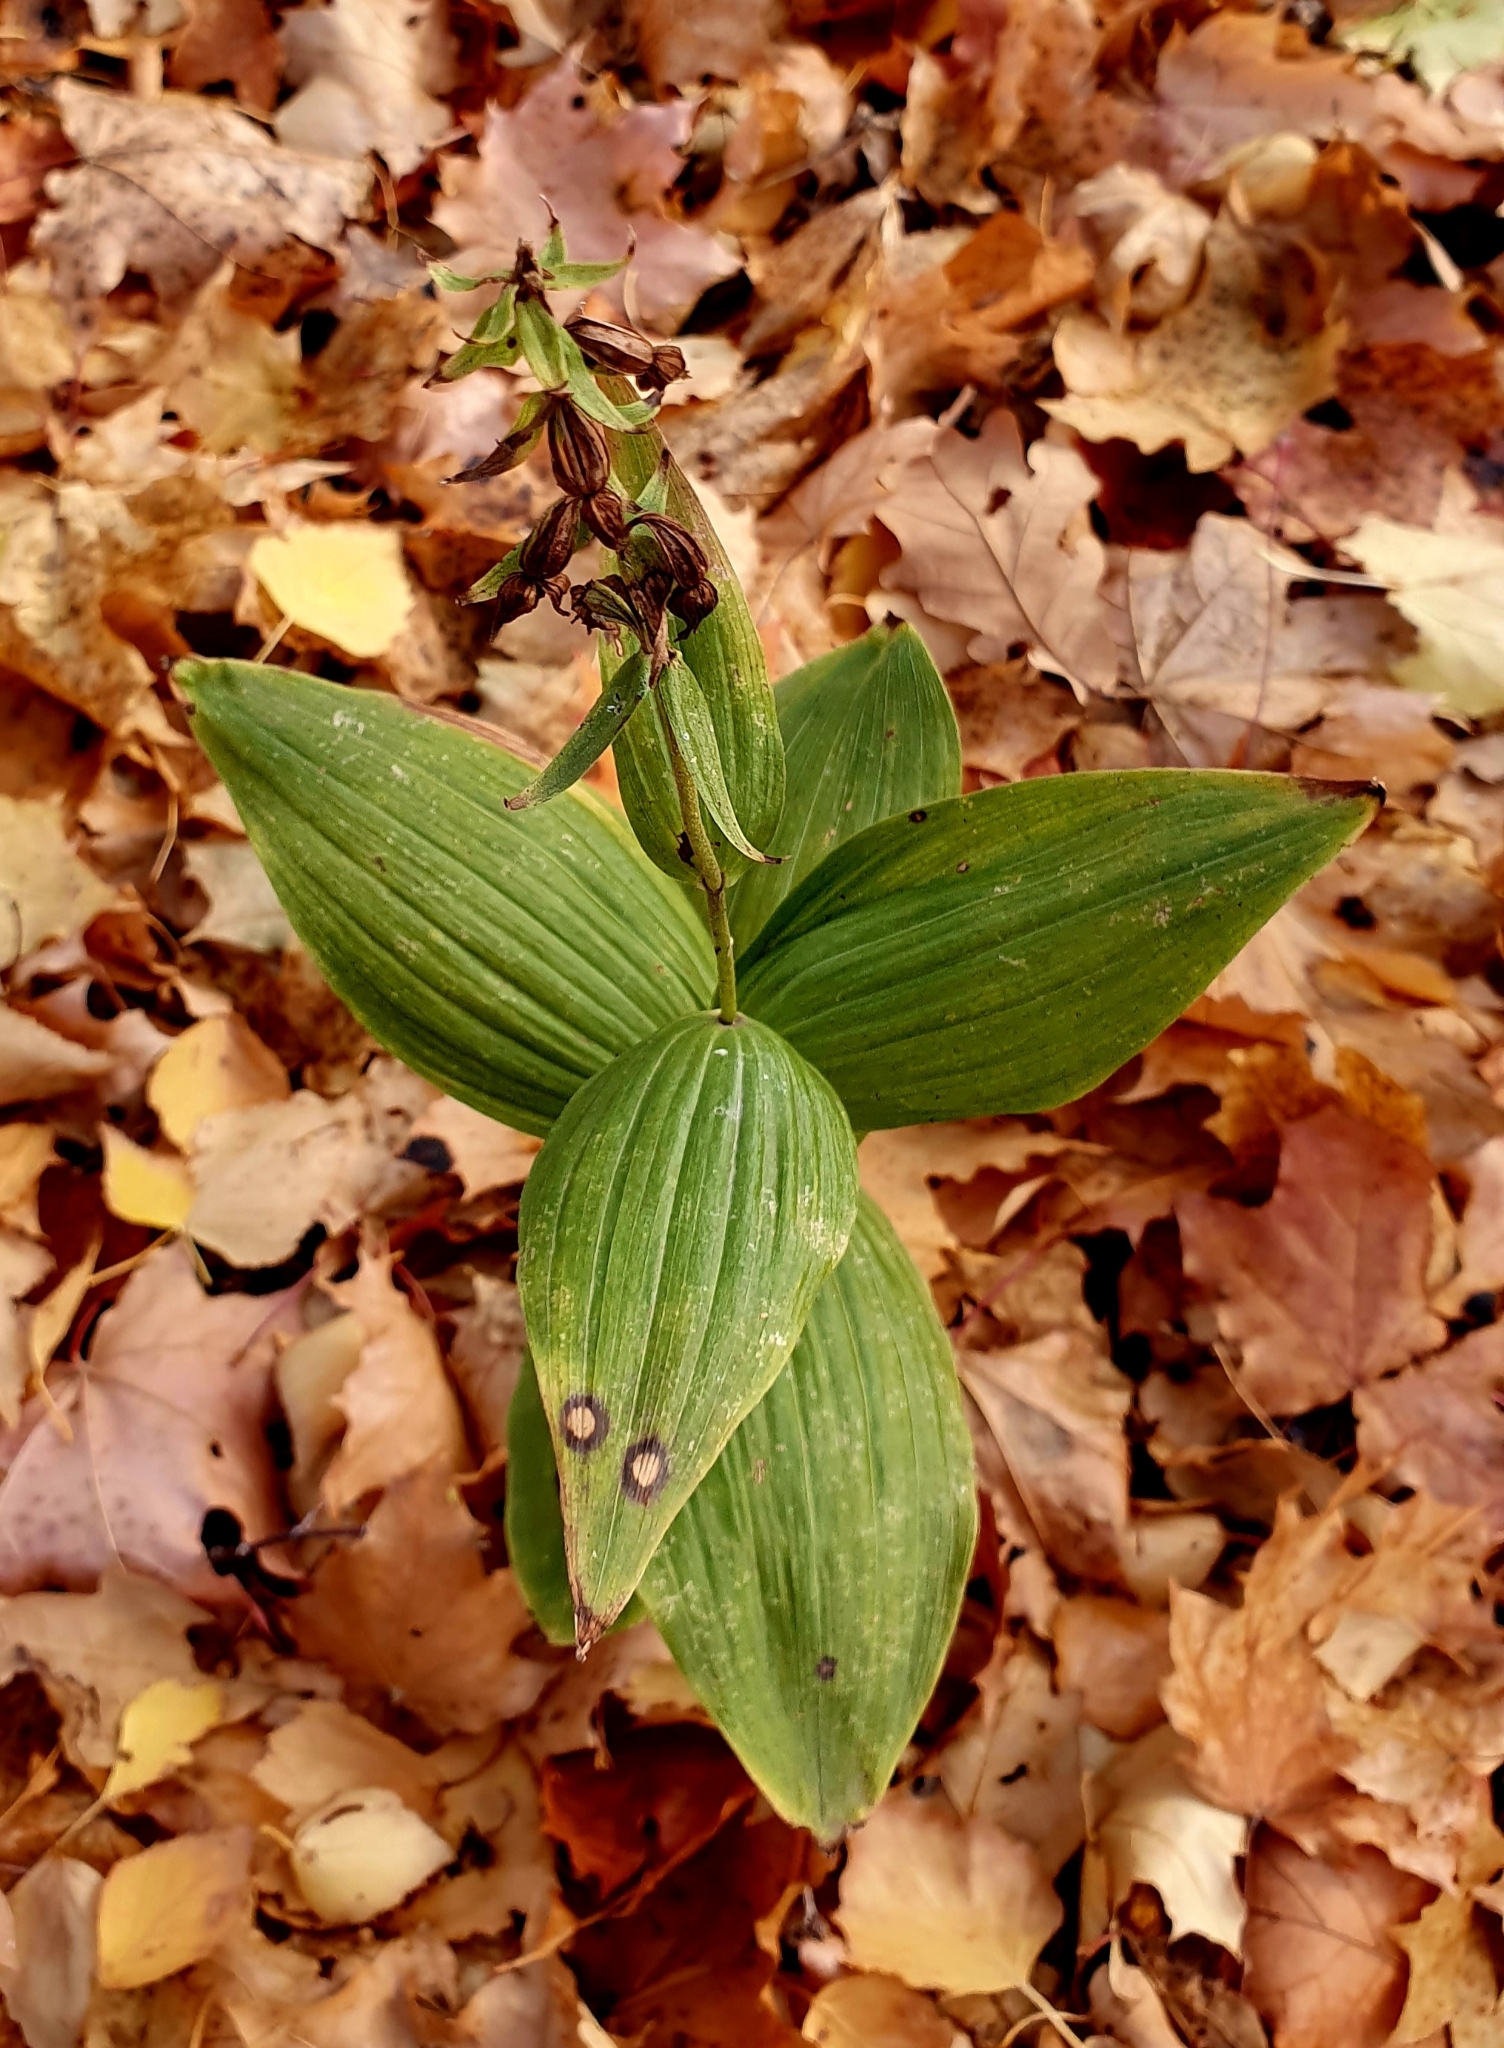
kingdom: Plantae
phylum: Tracheophyta
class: Liliopsida
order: Asparagales
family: Orchidaceae
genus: Epipactis
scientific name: Epipactis helleborine
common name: Broad-leaved helleborine
